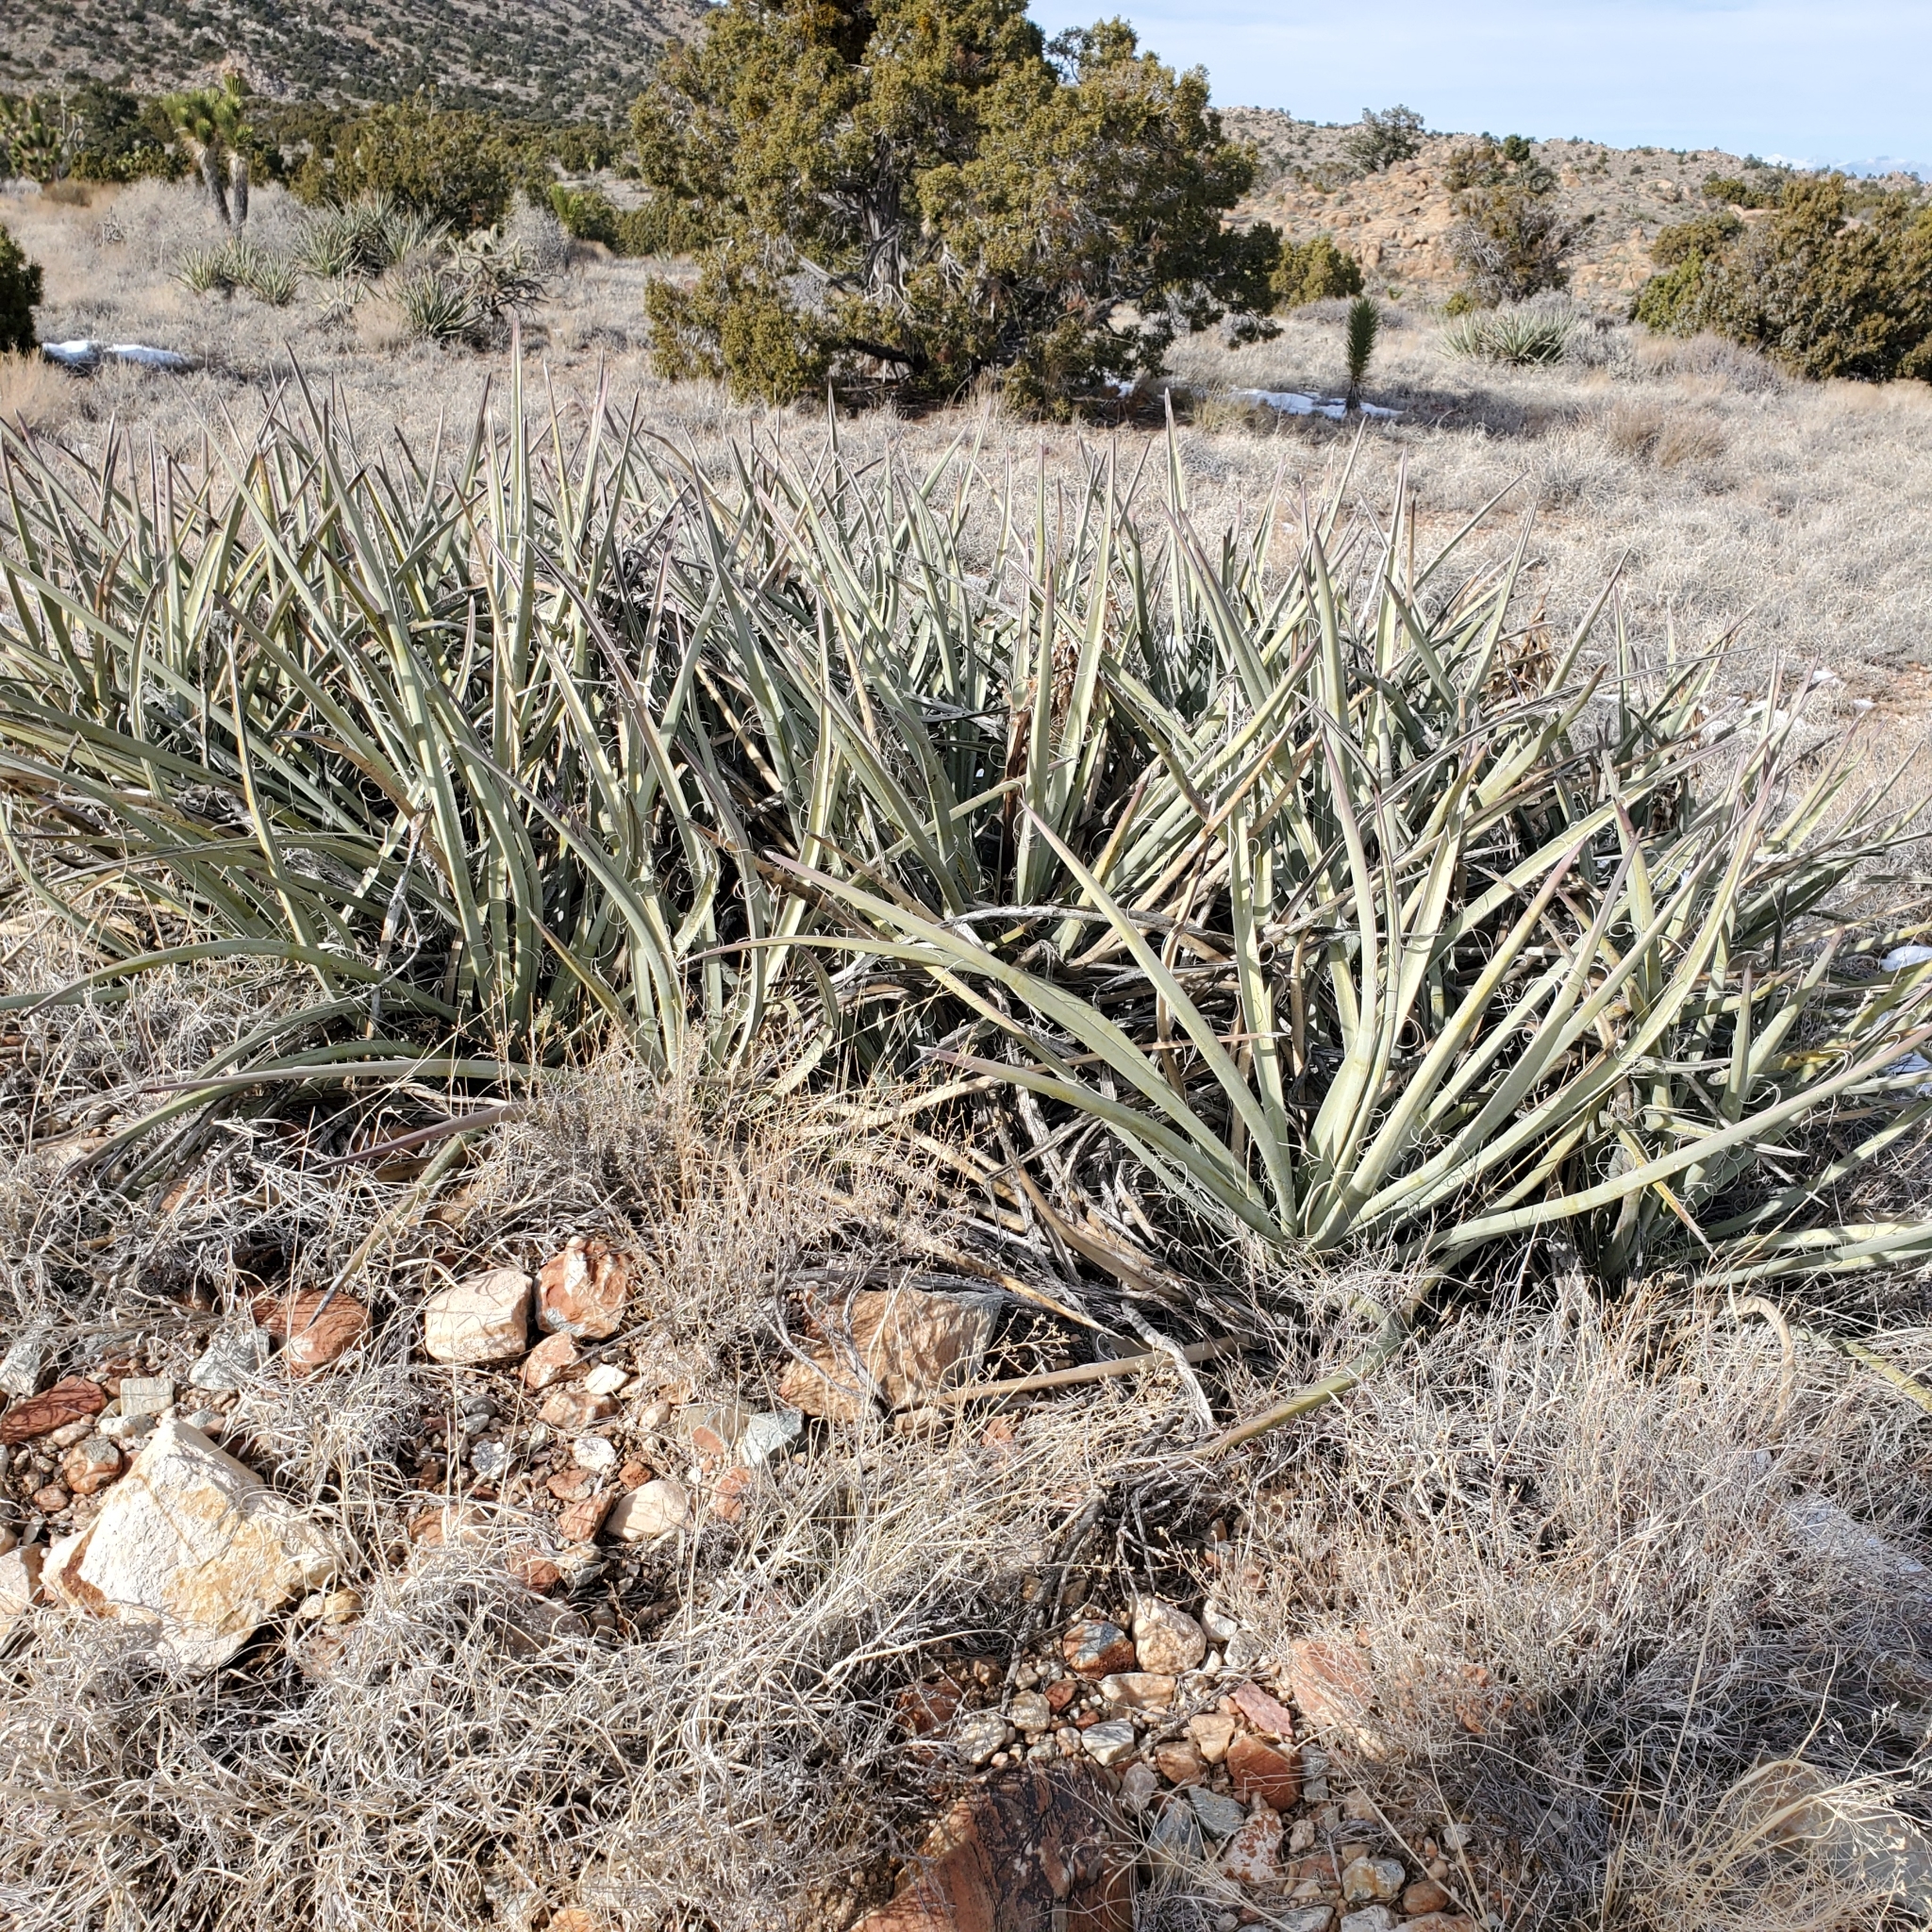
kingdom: Plantae
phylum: Tracheophyta
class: Liliopsida
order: Asparagales
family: Asparagaceae
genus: Yucca
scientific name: Yucca baccata
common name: Banana yucca
